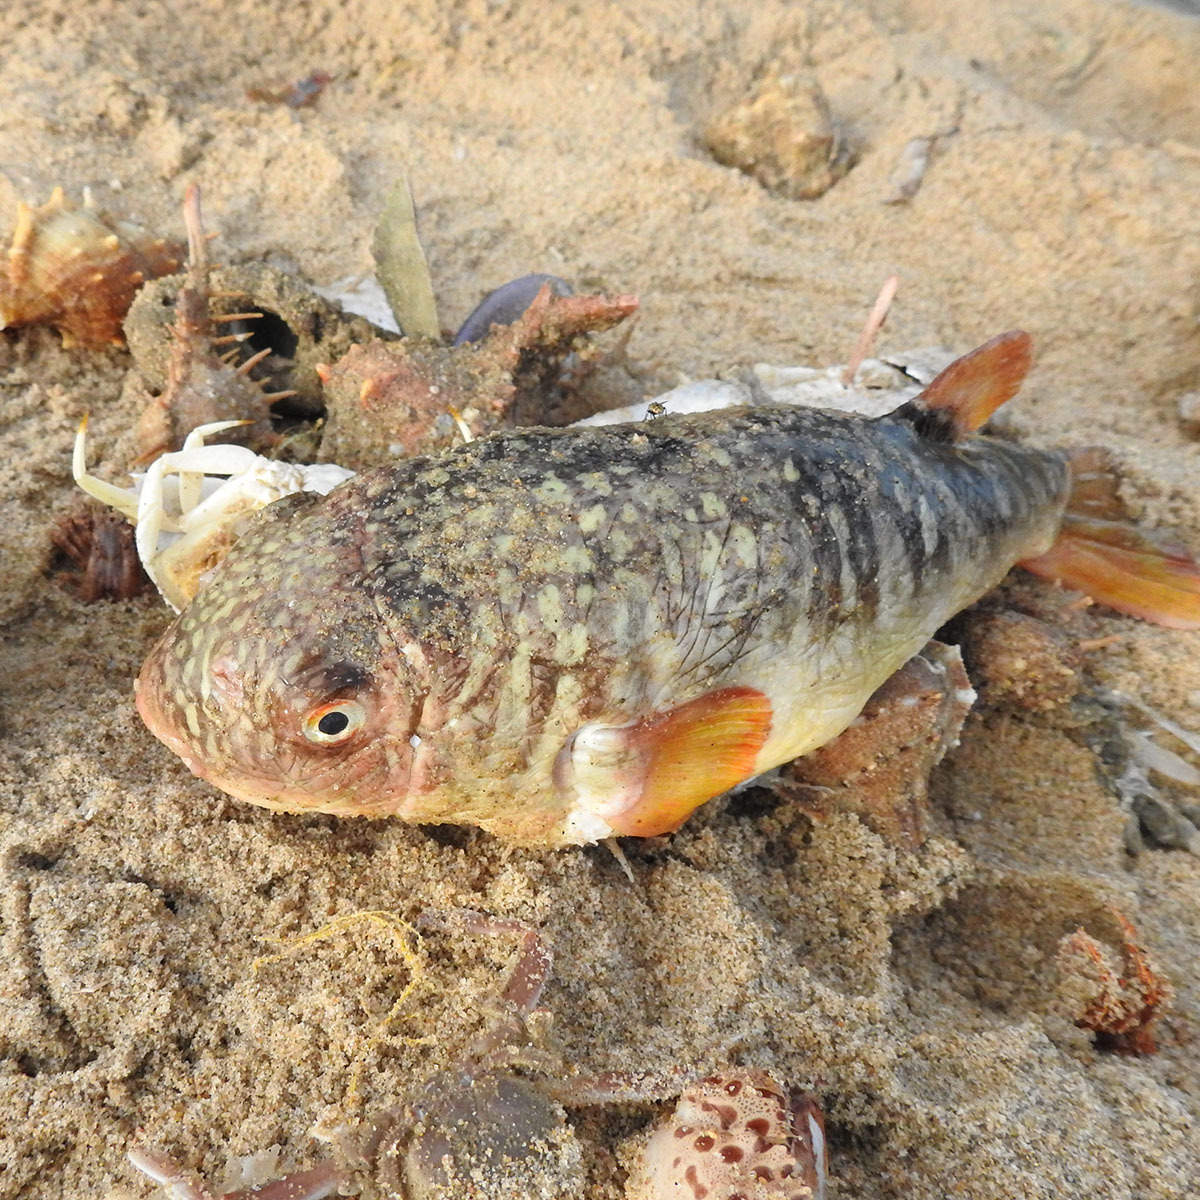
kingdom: Animalia
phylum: Chordata
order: Tetraodontiformes
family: Tetraodontidae
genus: Takifugu
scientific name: Takifugu oblongus
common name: Lattice blaasop
